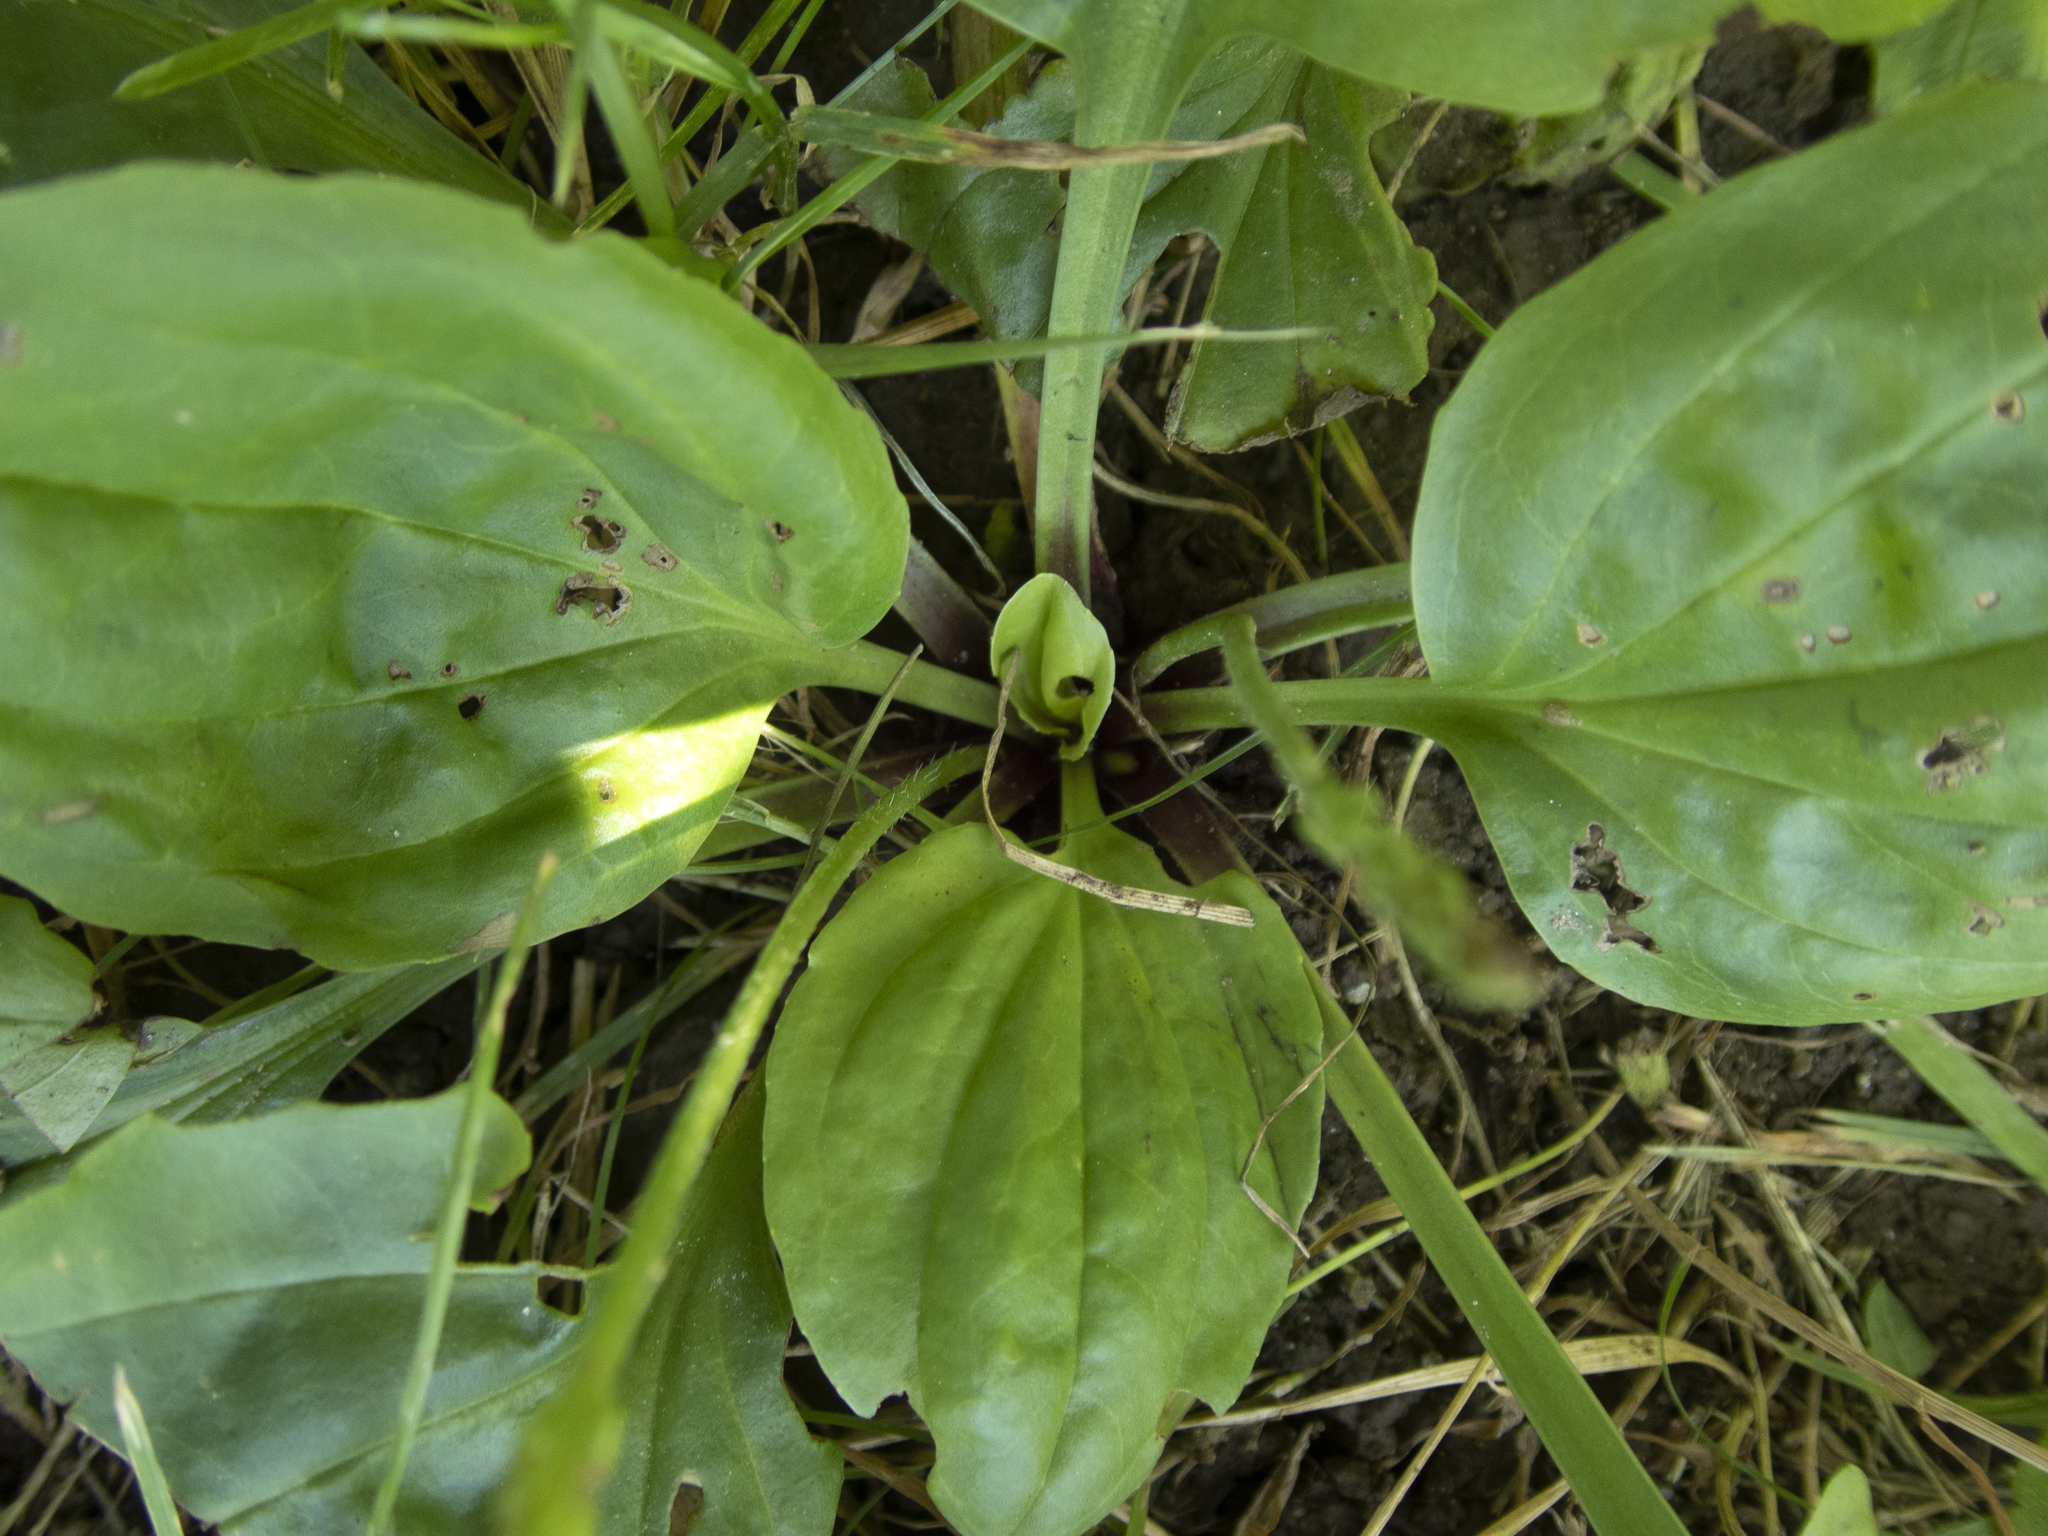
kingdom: Plantae
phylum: Tracheophyta
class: Magnoliopsida
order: Lamiales
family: Plantaginaceae
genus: Plantago
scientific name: Plantago rugelii
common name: American plantain
